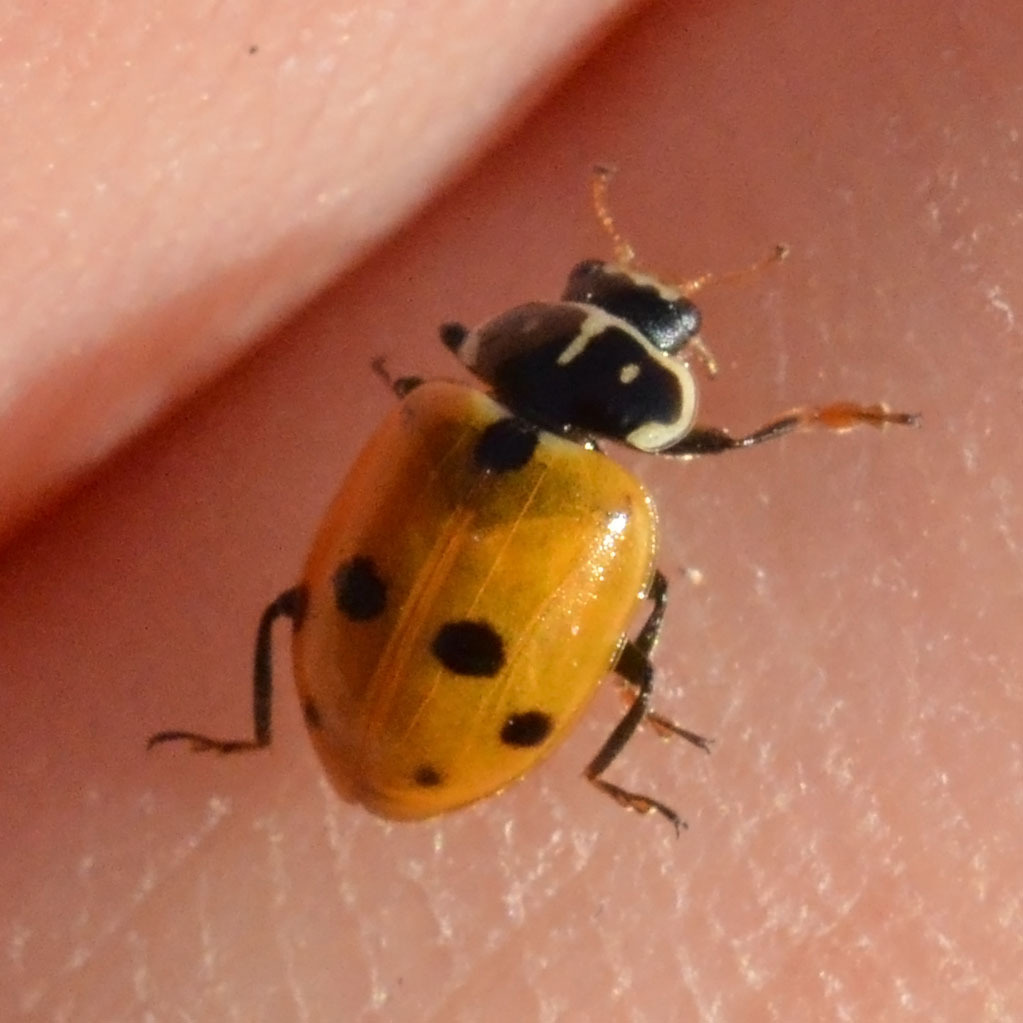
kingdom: Animalia
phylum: Arthropoda
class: Insecta
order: Coleoptera
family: Coccinellidae
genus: Hippodamia
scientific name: Hippodamia variegata
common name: Ladybird beetle
